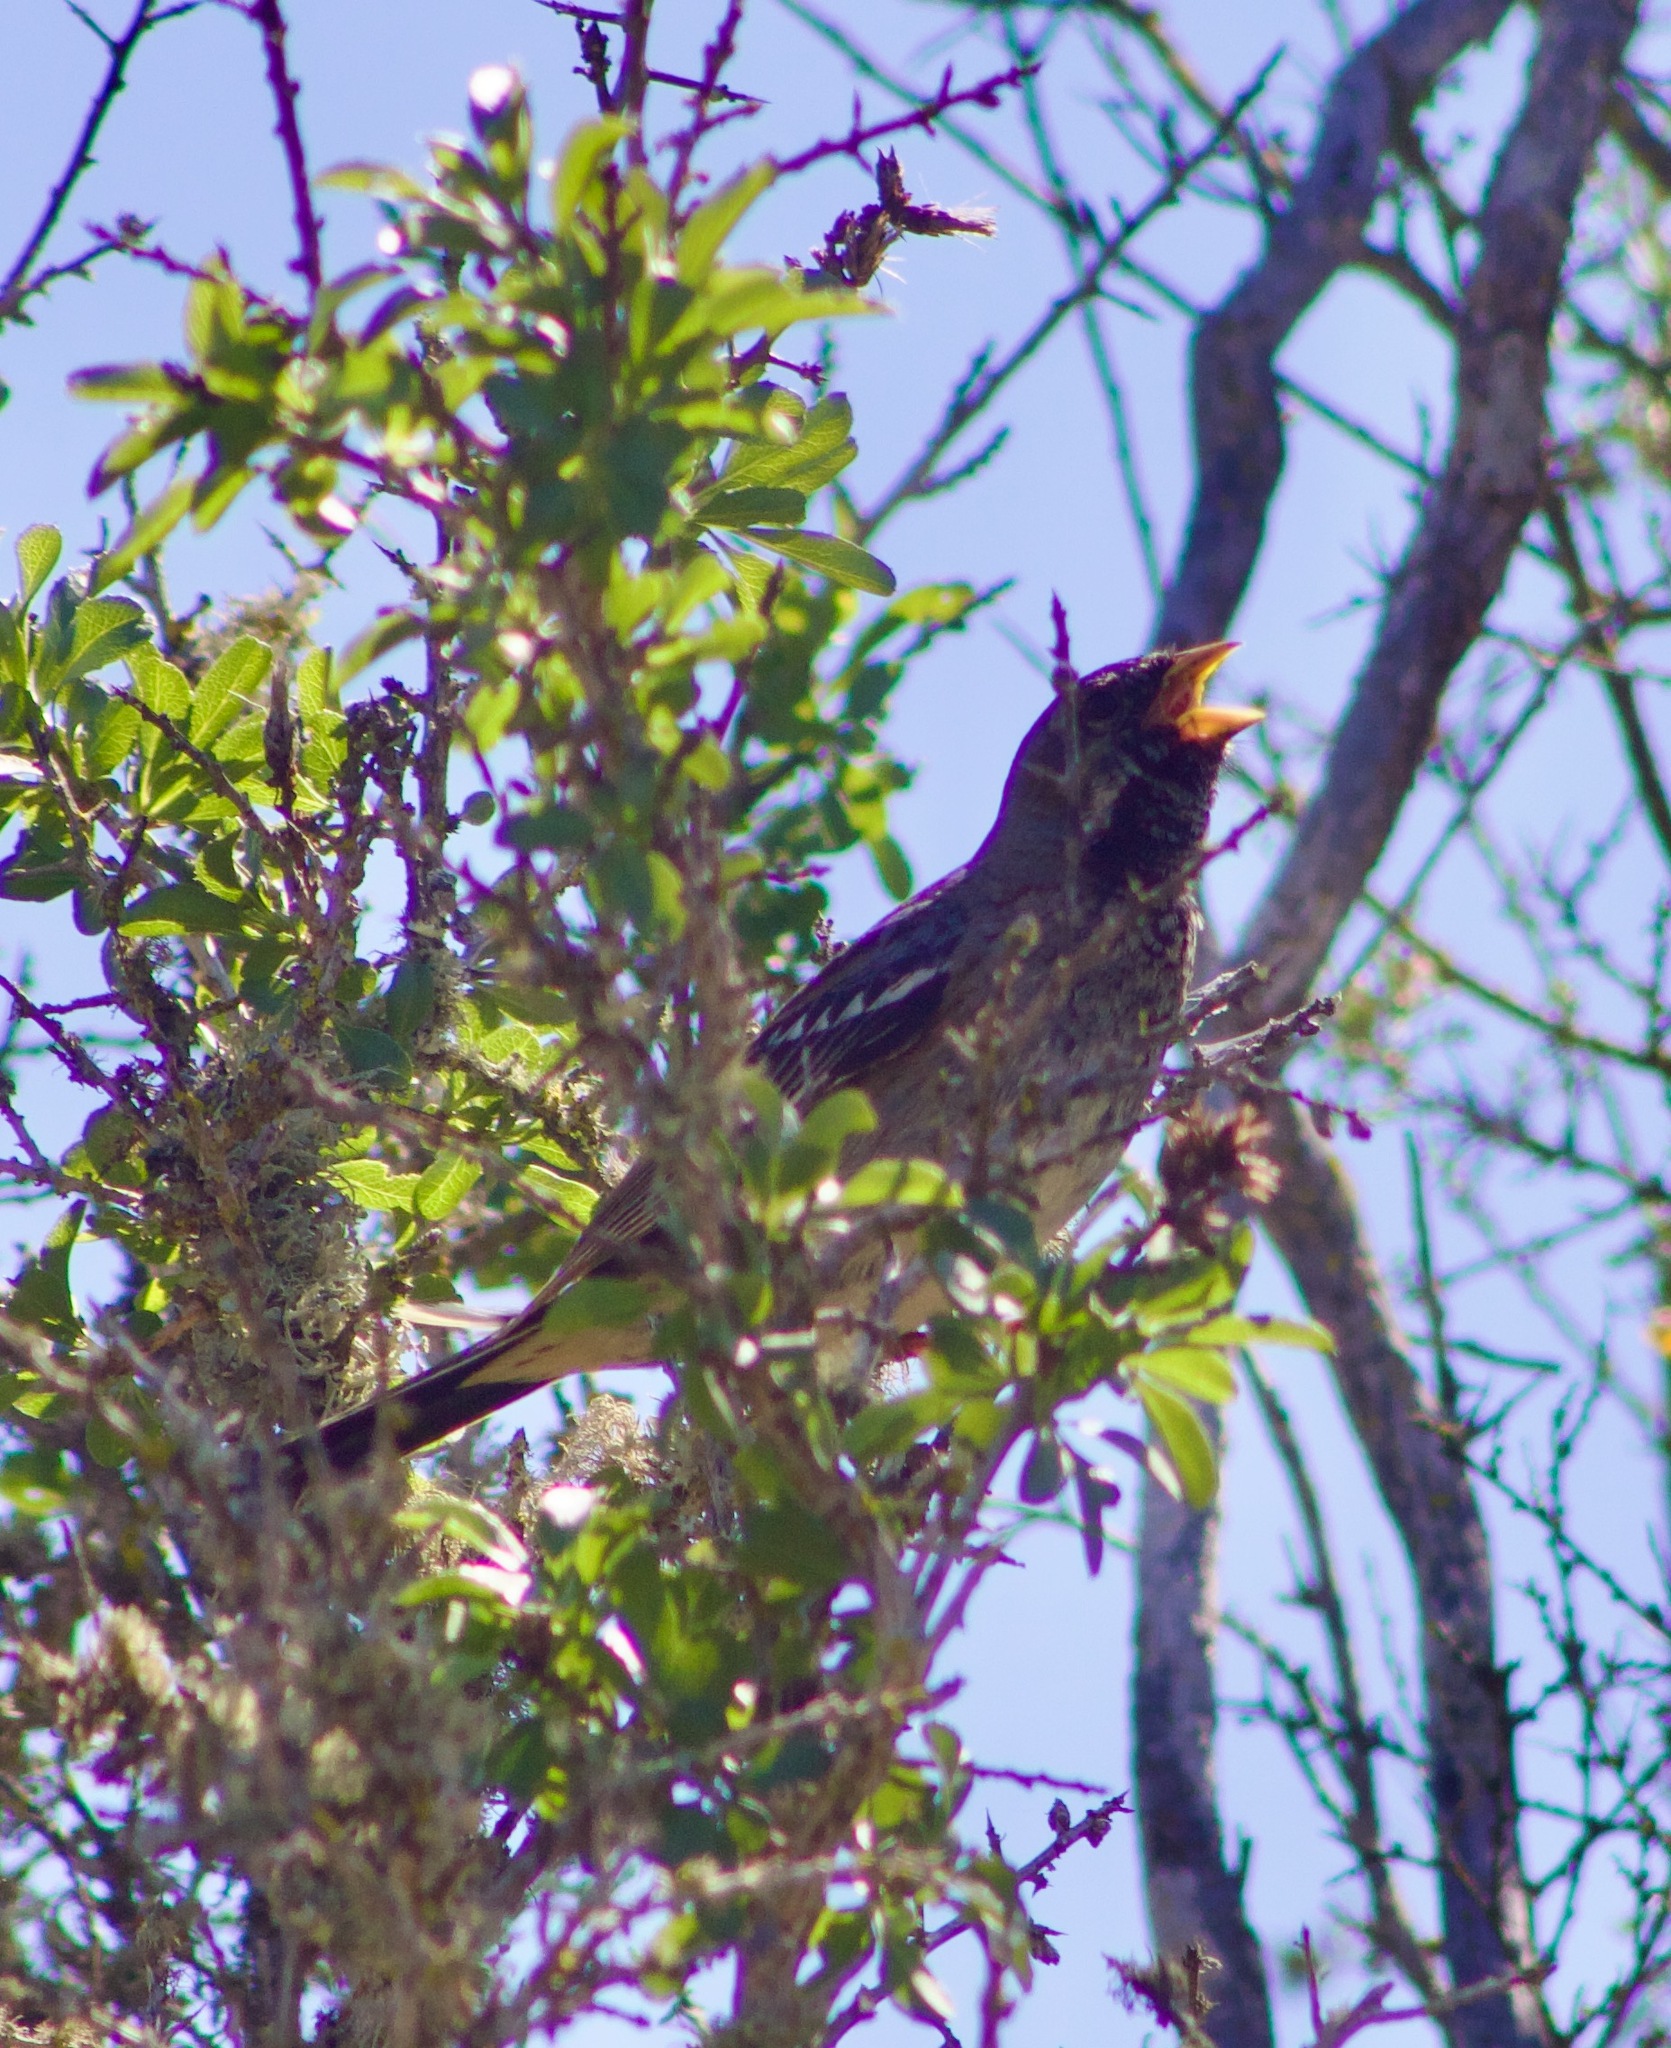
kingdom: Animalia
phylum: Chordata
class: Aves
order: Passeriformes
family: Thraupidae
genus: Rhopospina
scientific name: Rhopospina fruticeti
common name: Mourning sierra finch
